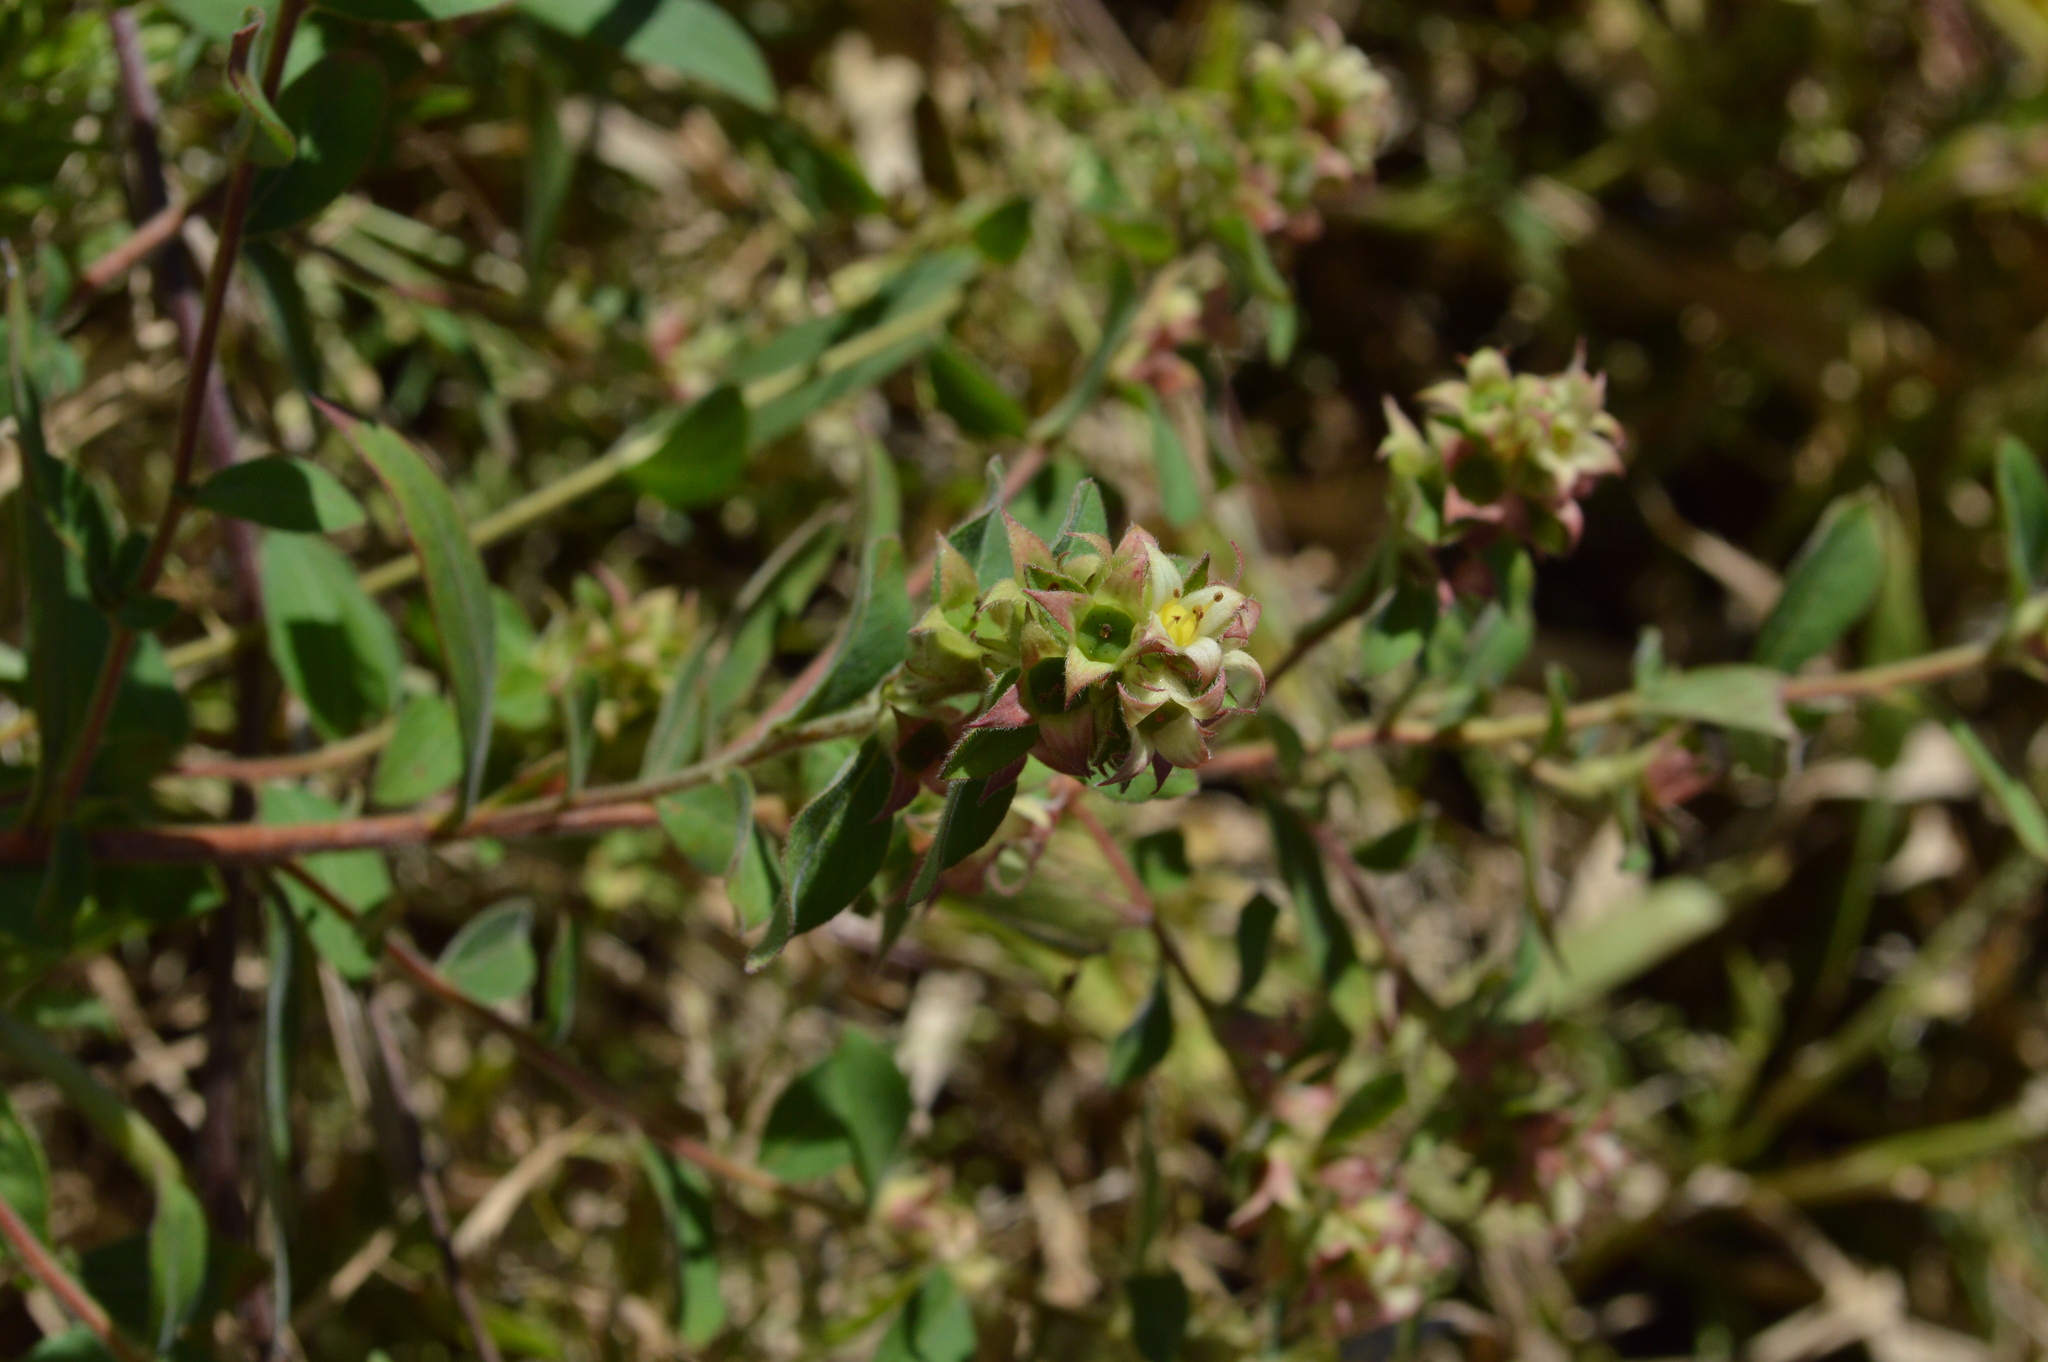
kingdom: Plantae
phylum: Tracheophyta
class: Magnoliopsida
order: Myrtales
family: Onagraceae
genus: Ludwigia
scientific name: Ludwigia pilosa
